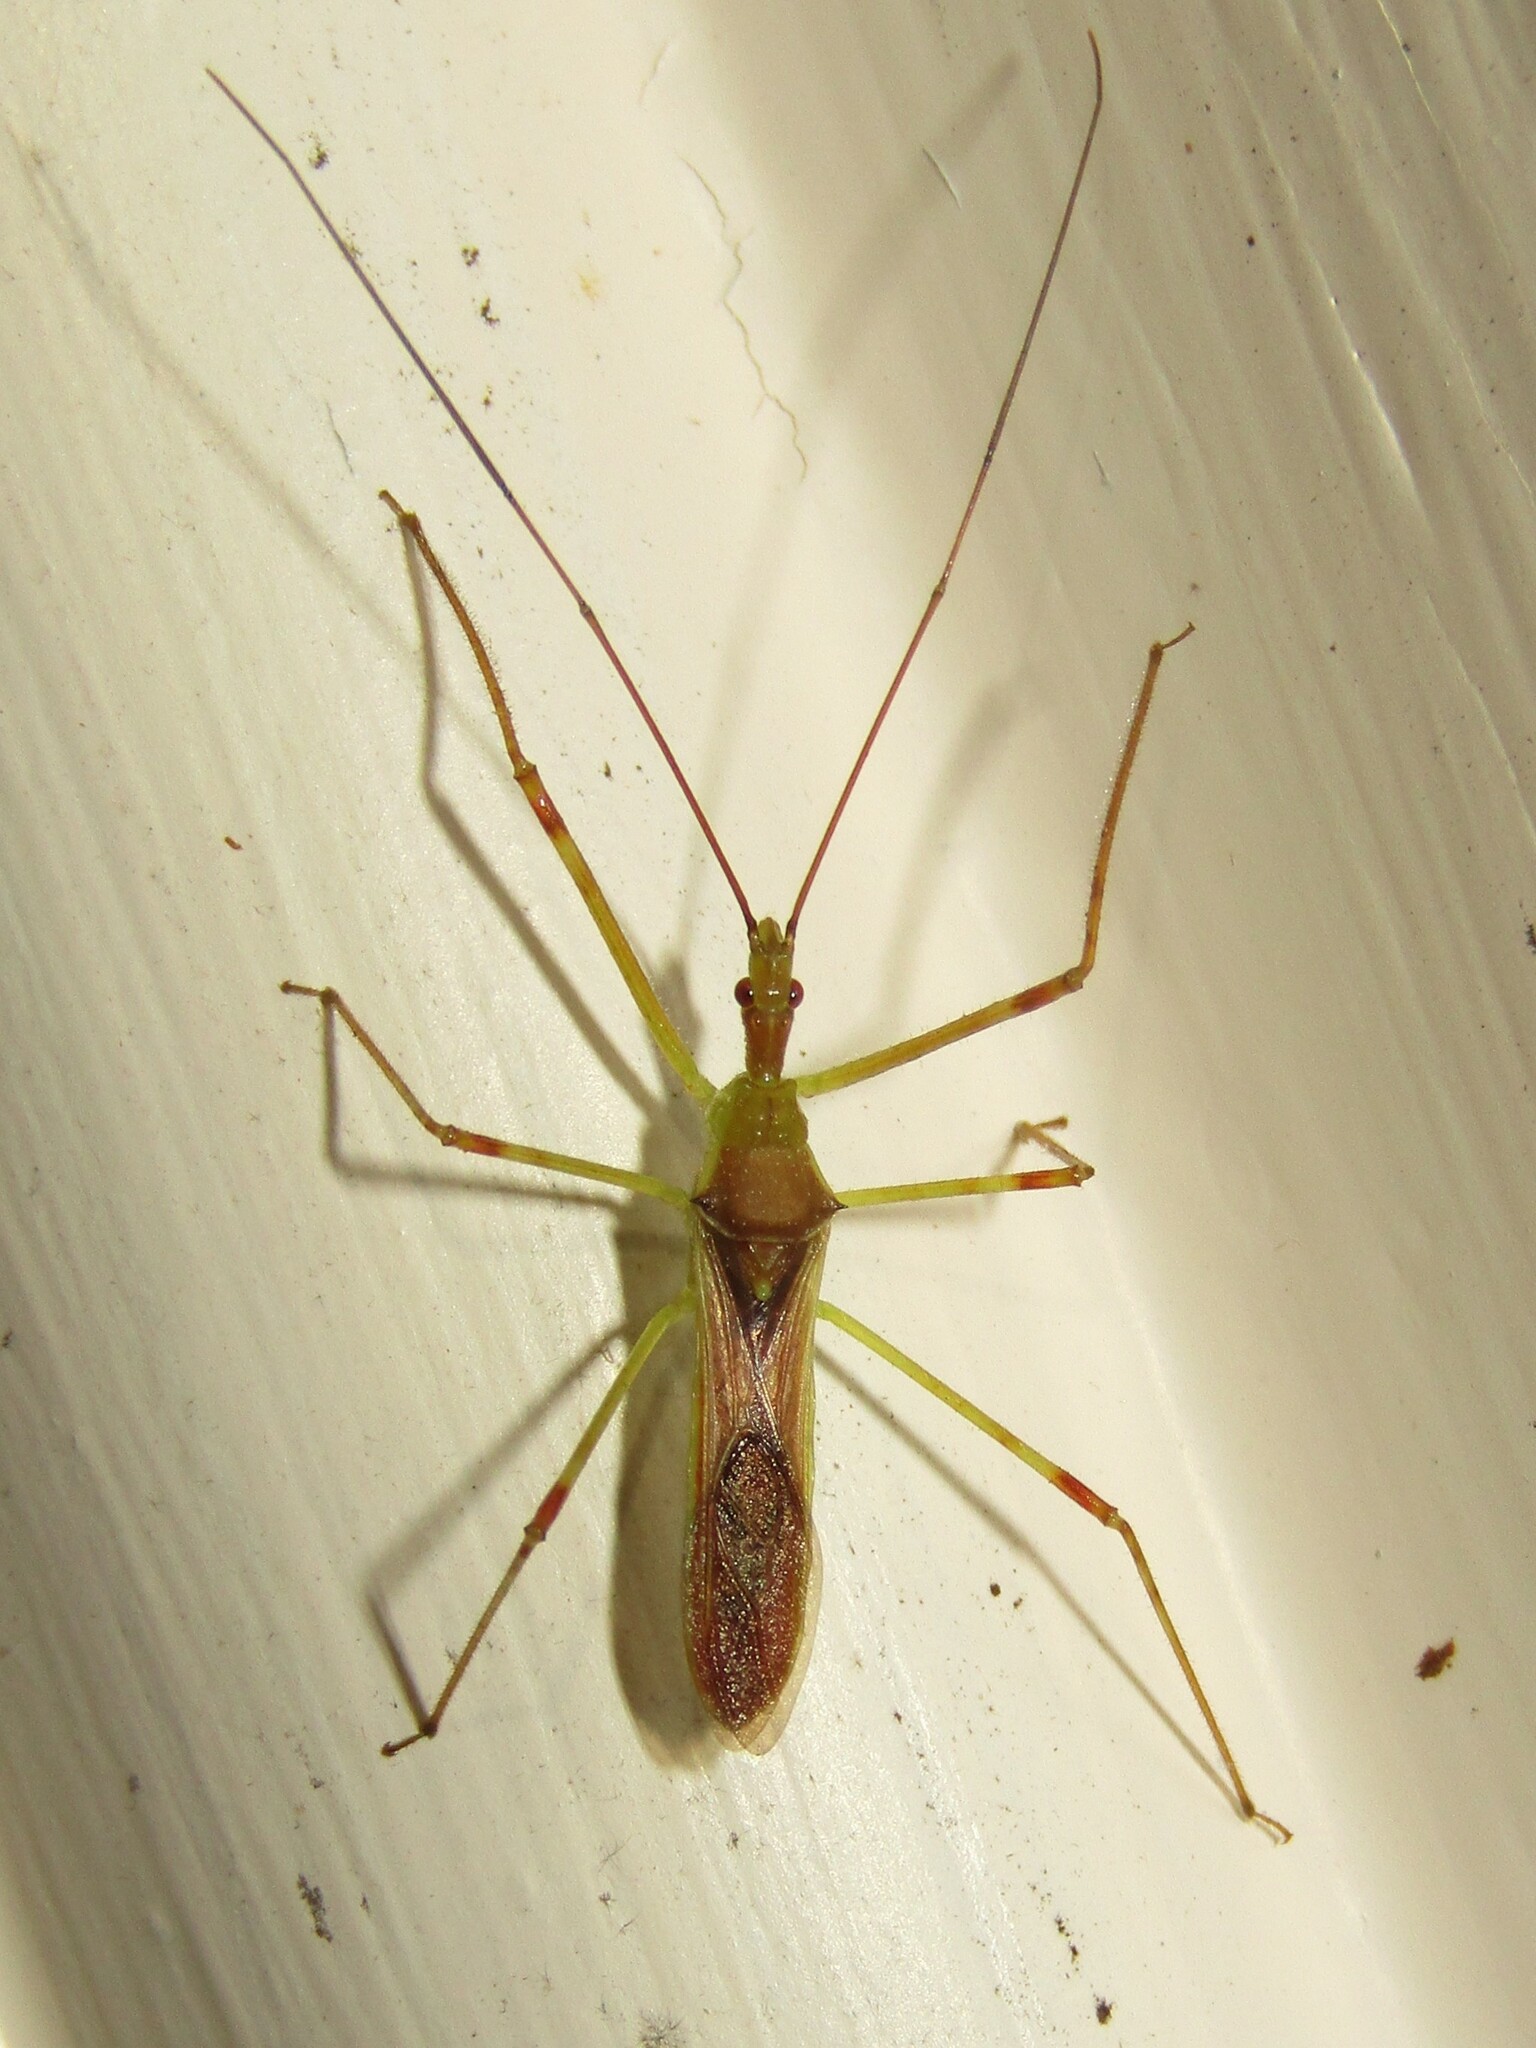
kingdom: Animalia
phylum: Arthropoda
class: Insecta
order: Hemiptera
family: Reduviidae
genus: Zelus
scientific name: Zelus luridus
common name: Pale green assassin bug
